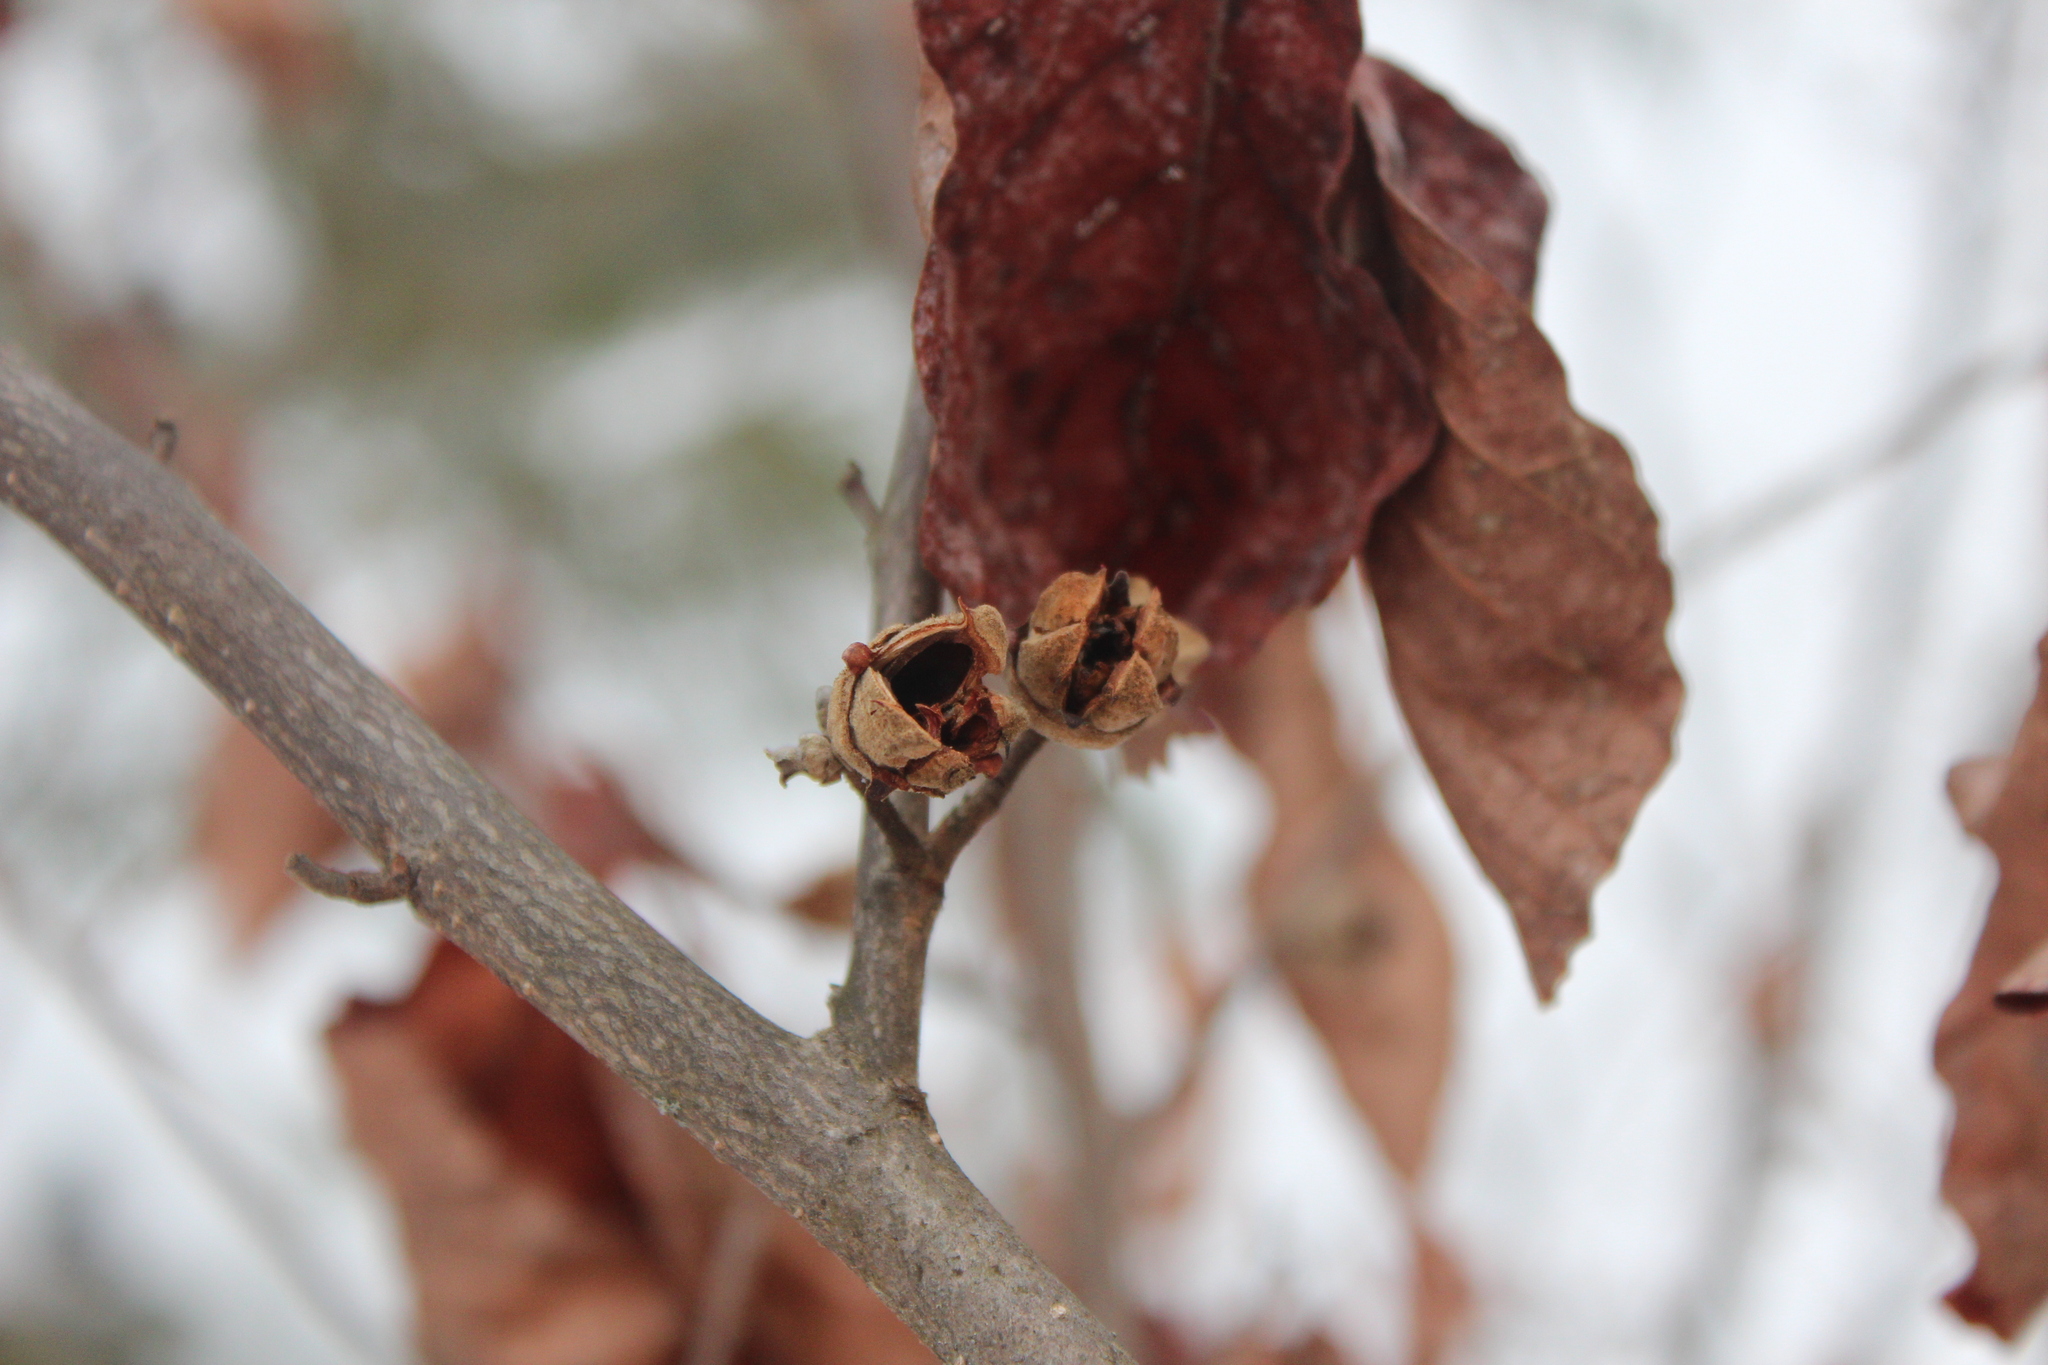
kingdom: Plantae
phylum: Tracheophyta
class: Magnoliopsida
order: Saxifragales
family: Hamamelidaceae
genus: Hamamelis
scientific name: Hamamelis virginiana
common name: Witch-hazel
